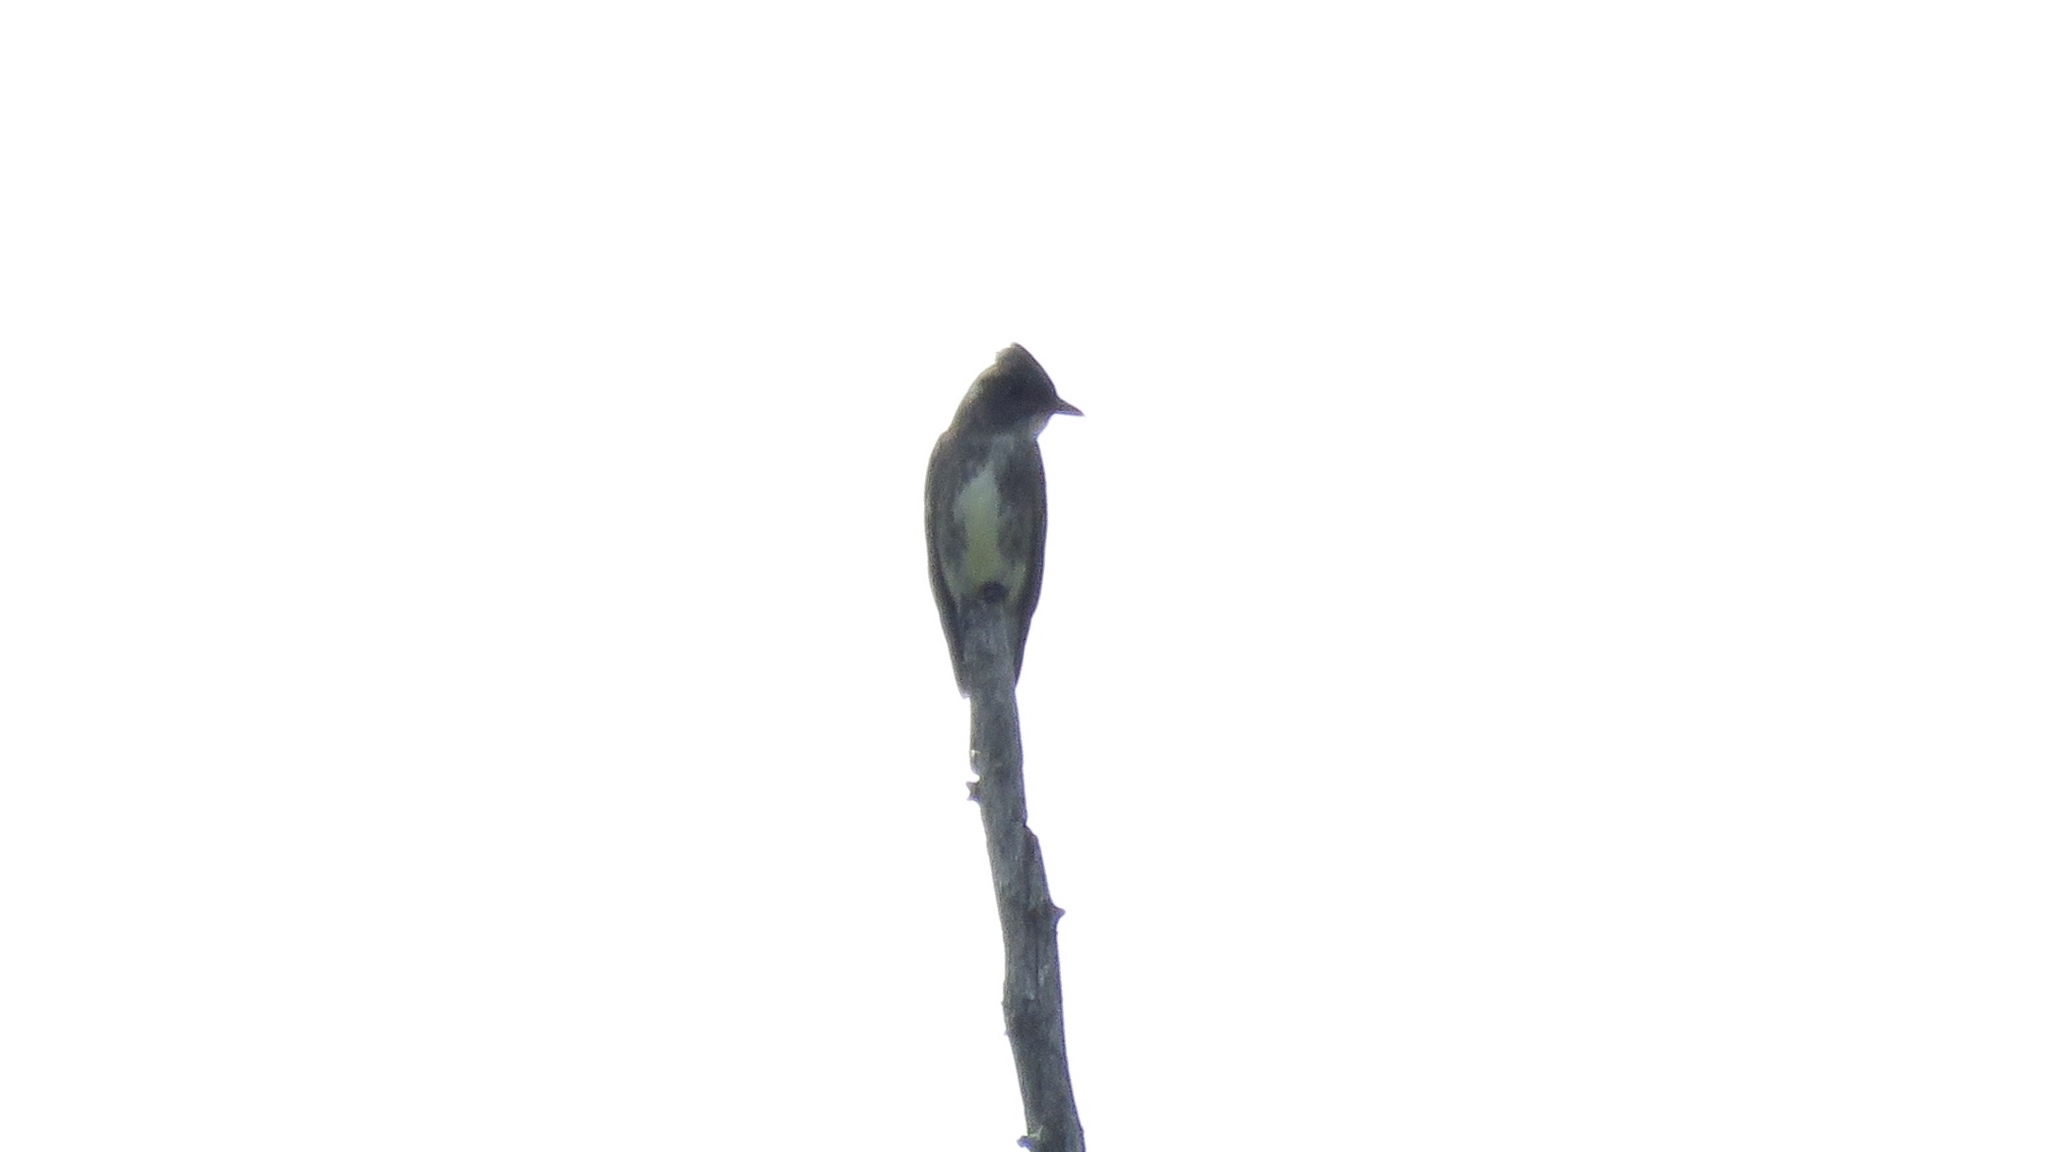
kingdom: Animalia
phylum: Chordata
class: Aves
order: Passeriformes
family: Tyrannidae
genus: Contopus
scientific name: Contopus cooperi
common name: Olive-sided flycatcher
